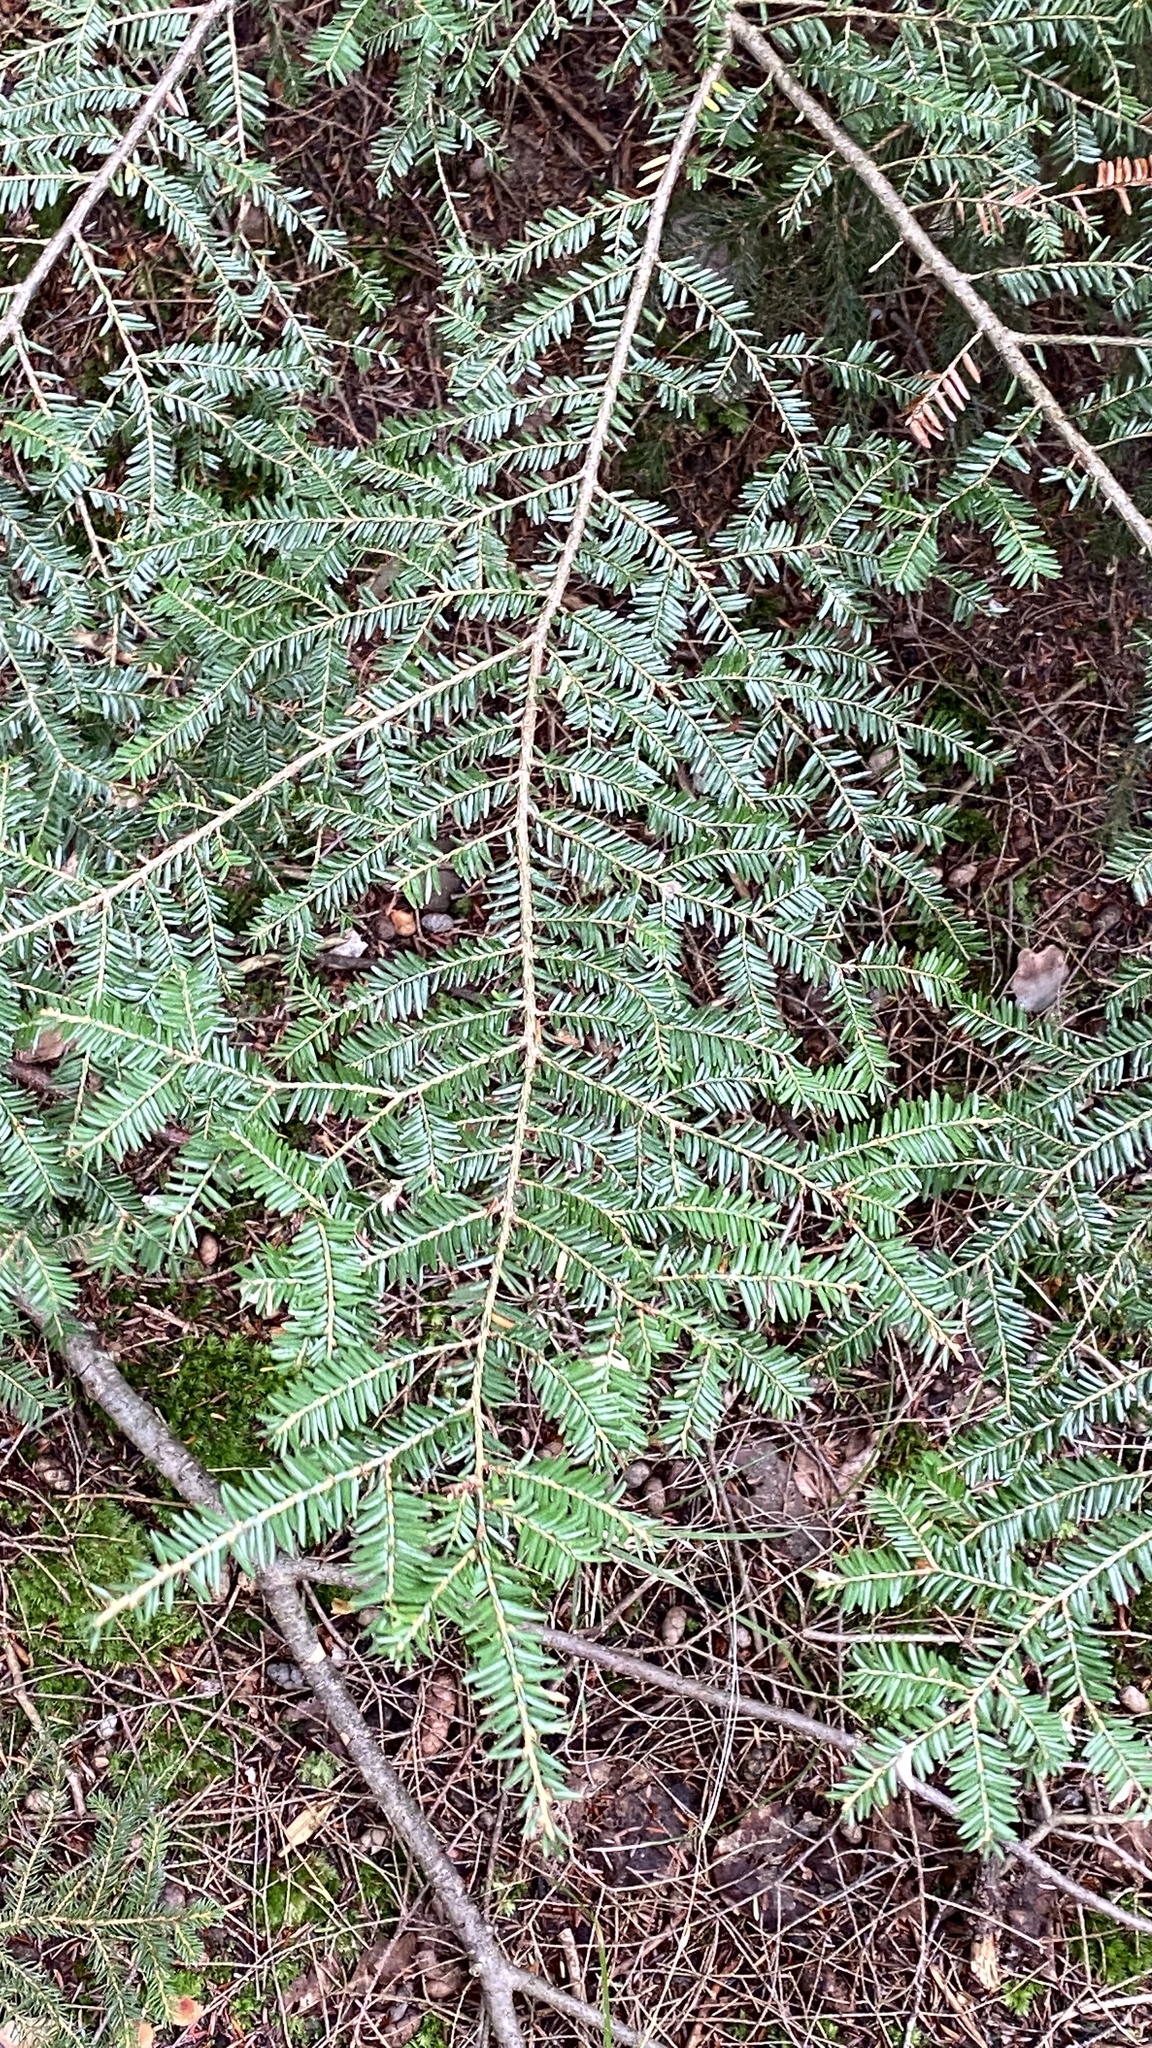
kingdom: Plantae
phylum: Tracheophyta
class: Pinopsida
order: Pinales
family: Pinaceae
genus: Tsuga
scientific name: Tsuga canadensis
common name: Eastern hemlock
